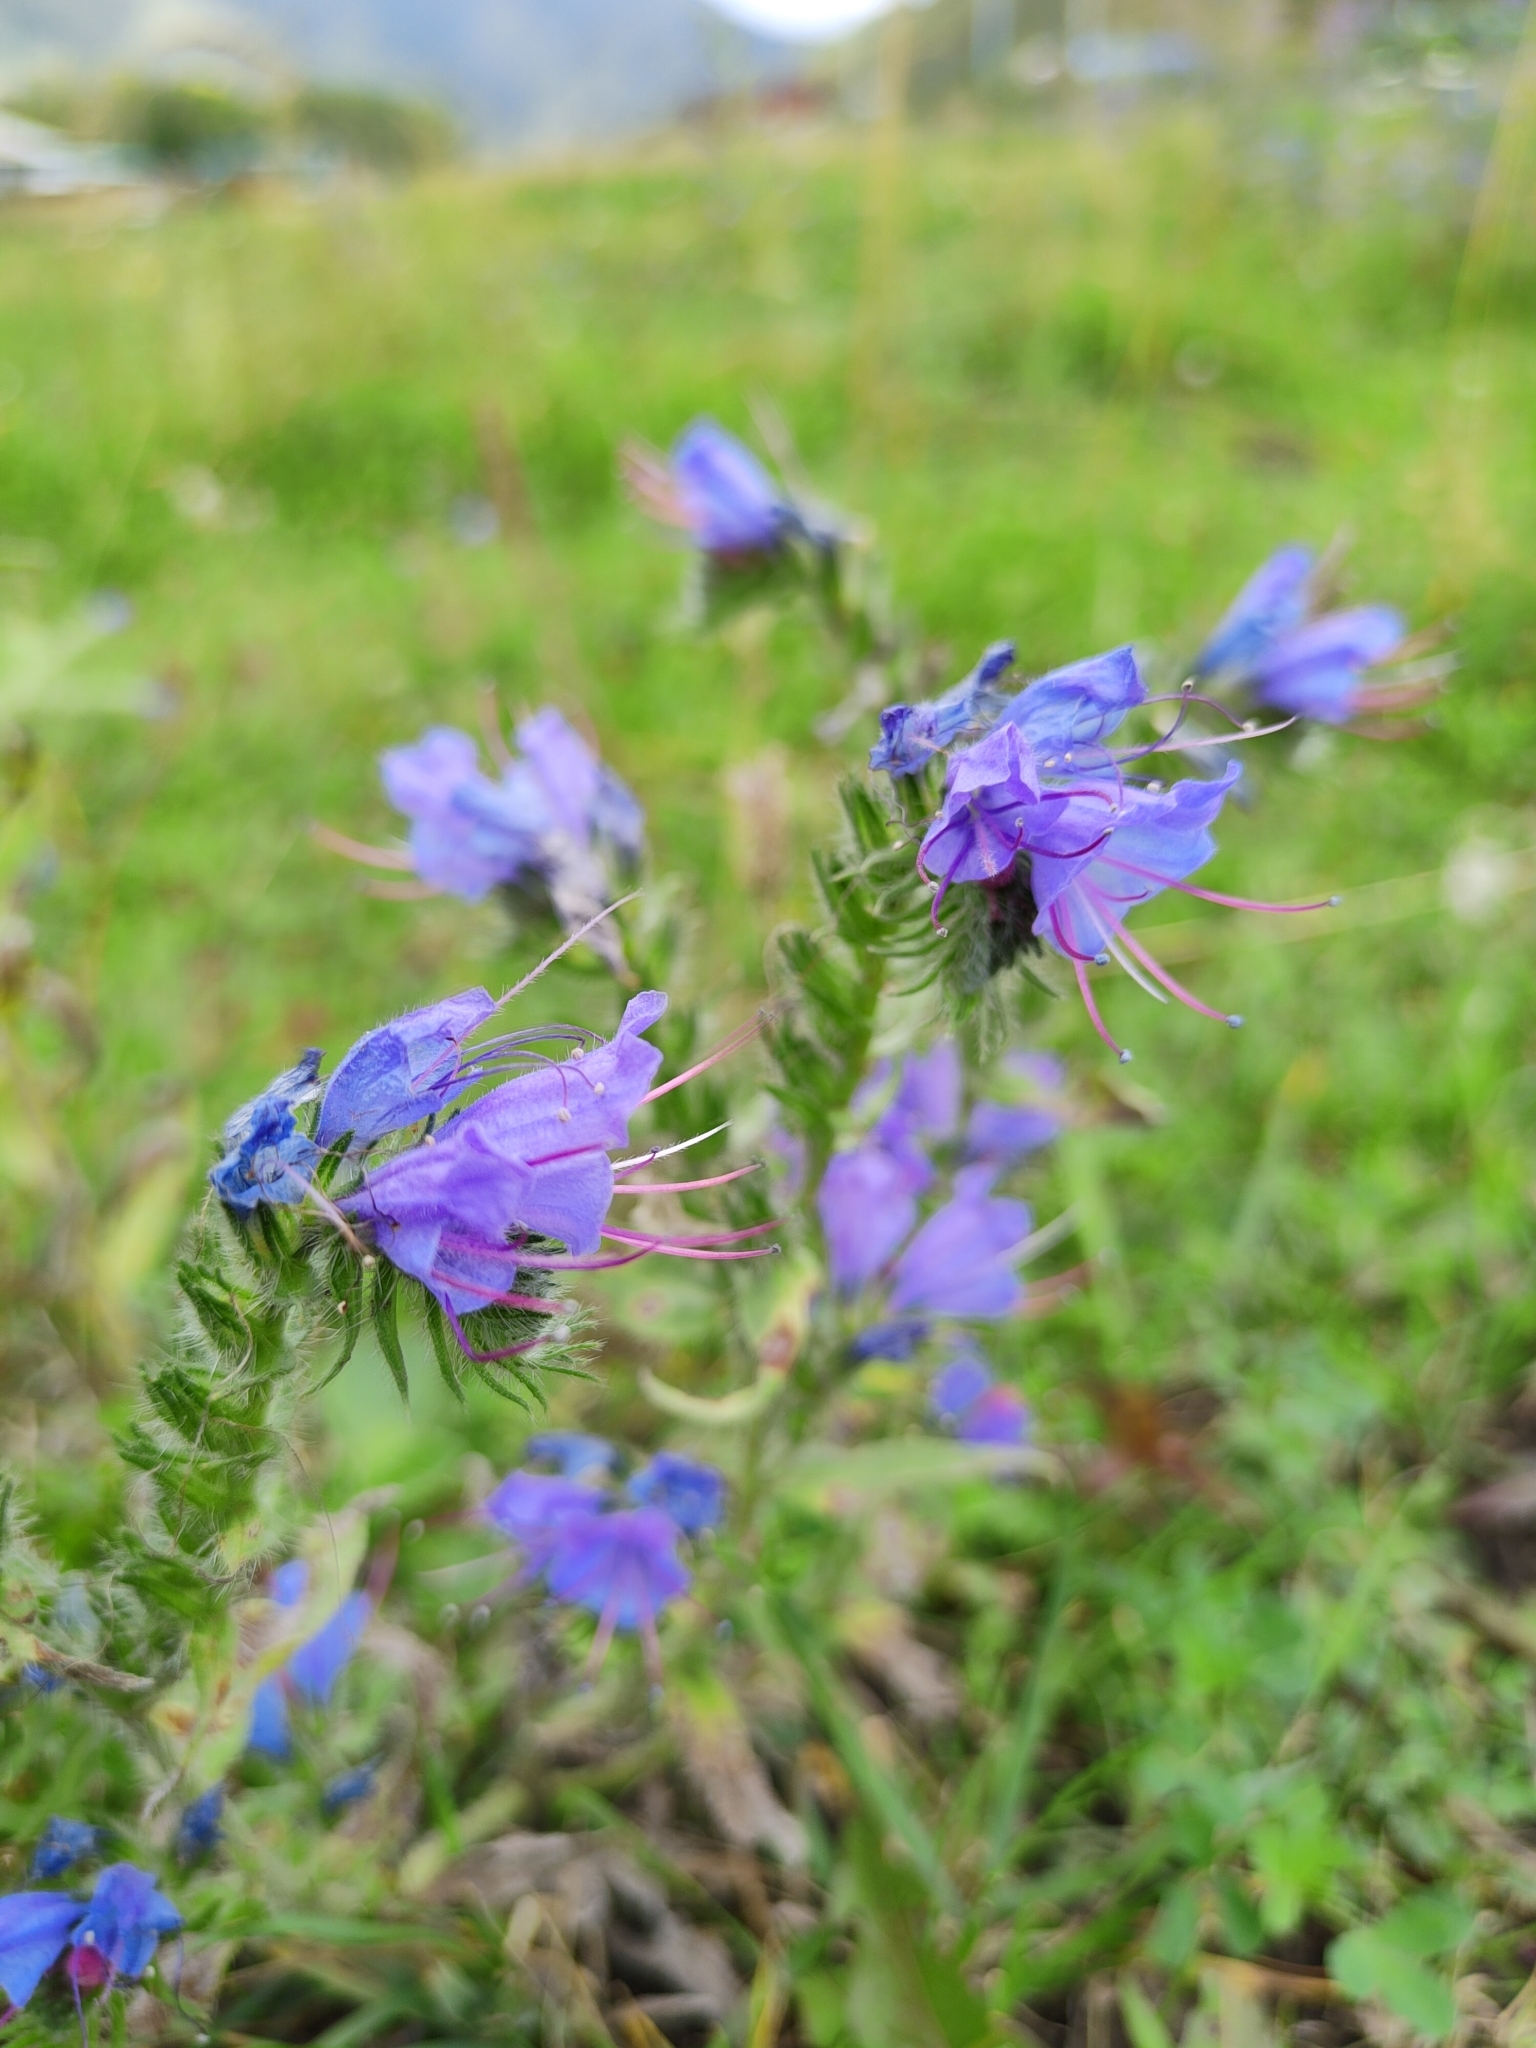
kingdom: Plantae
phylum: Tracheophyta
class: Magnoliopsida
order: Boraginales
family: Boraginaceae
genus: Echium
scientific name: Echium vulgare
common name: Common viper's bugloss
